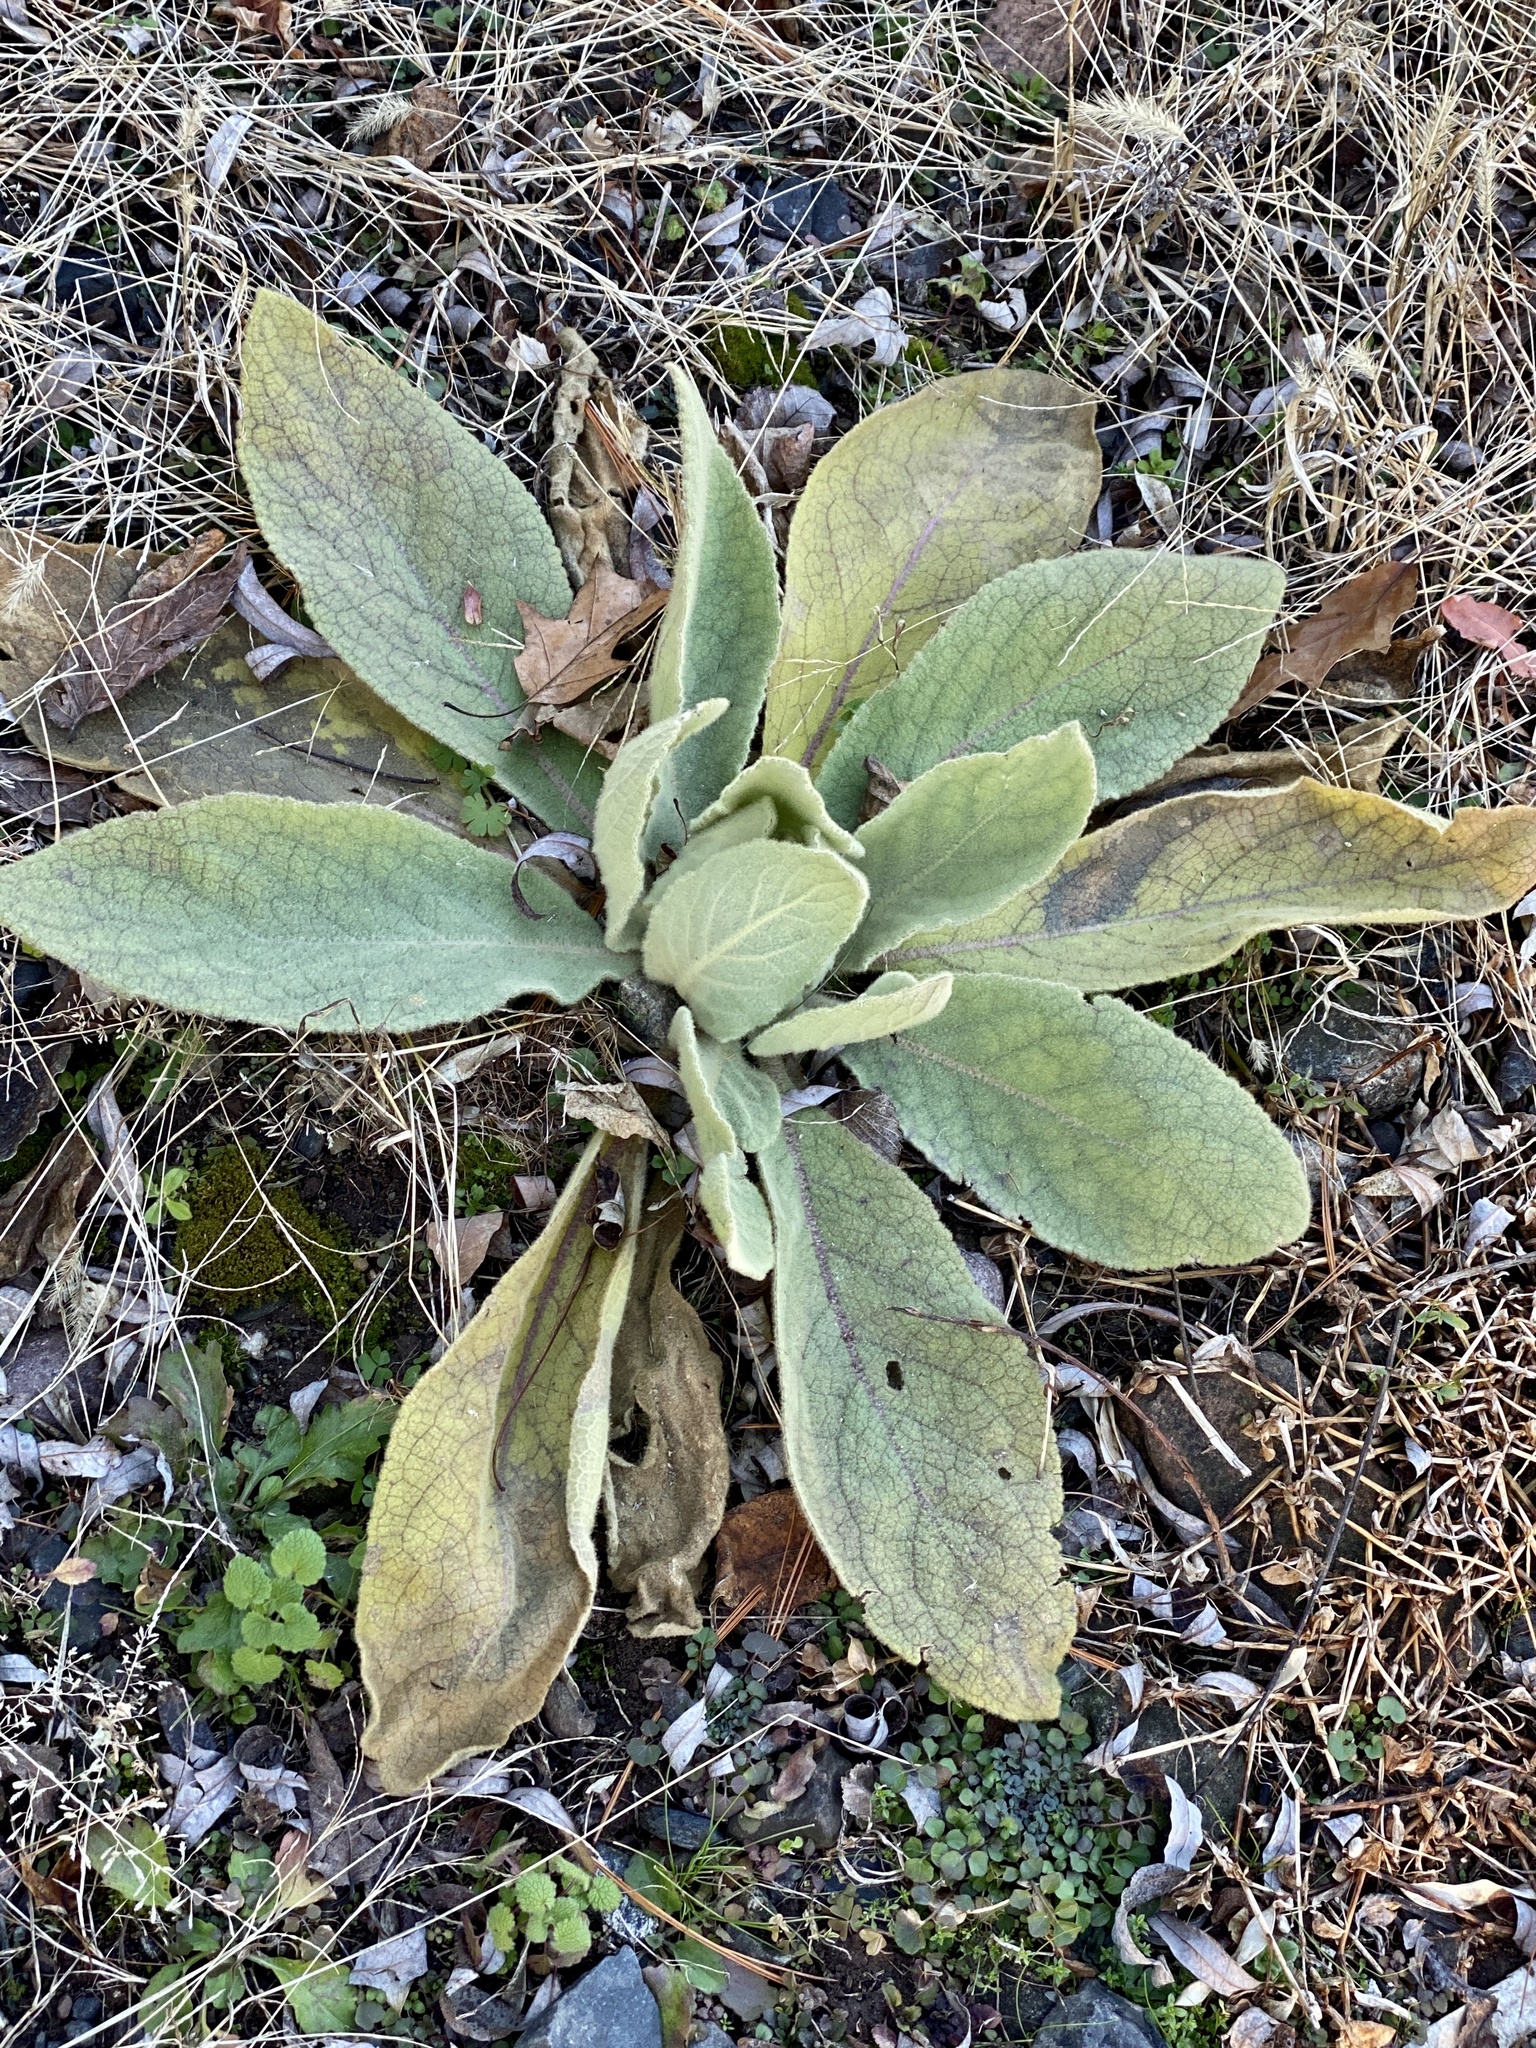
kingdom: Plantae
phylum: Tracheophyta
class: Magnoliopsida
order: Lamiales
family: Scrophulariaceae
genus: Verbascum
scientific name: Verbascum thapsus
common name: Common mullein
